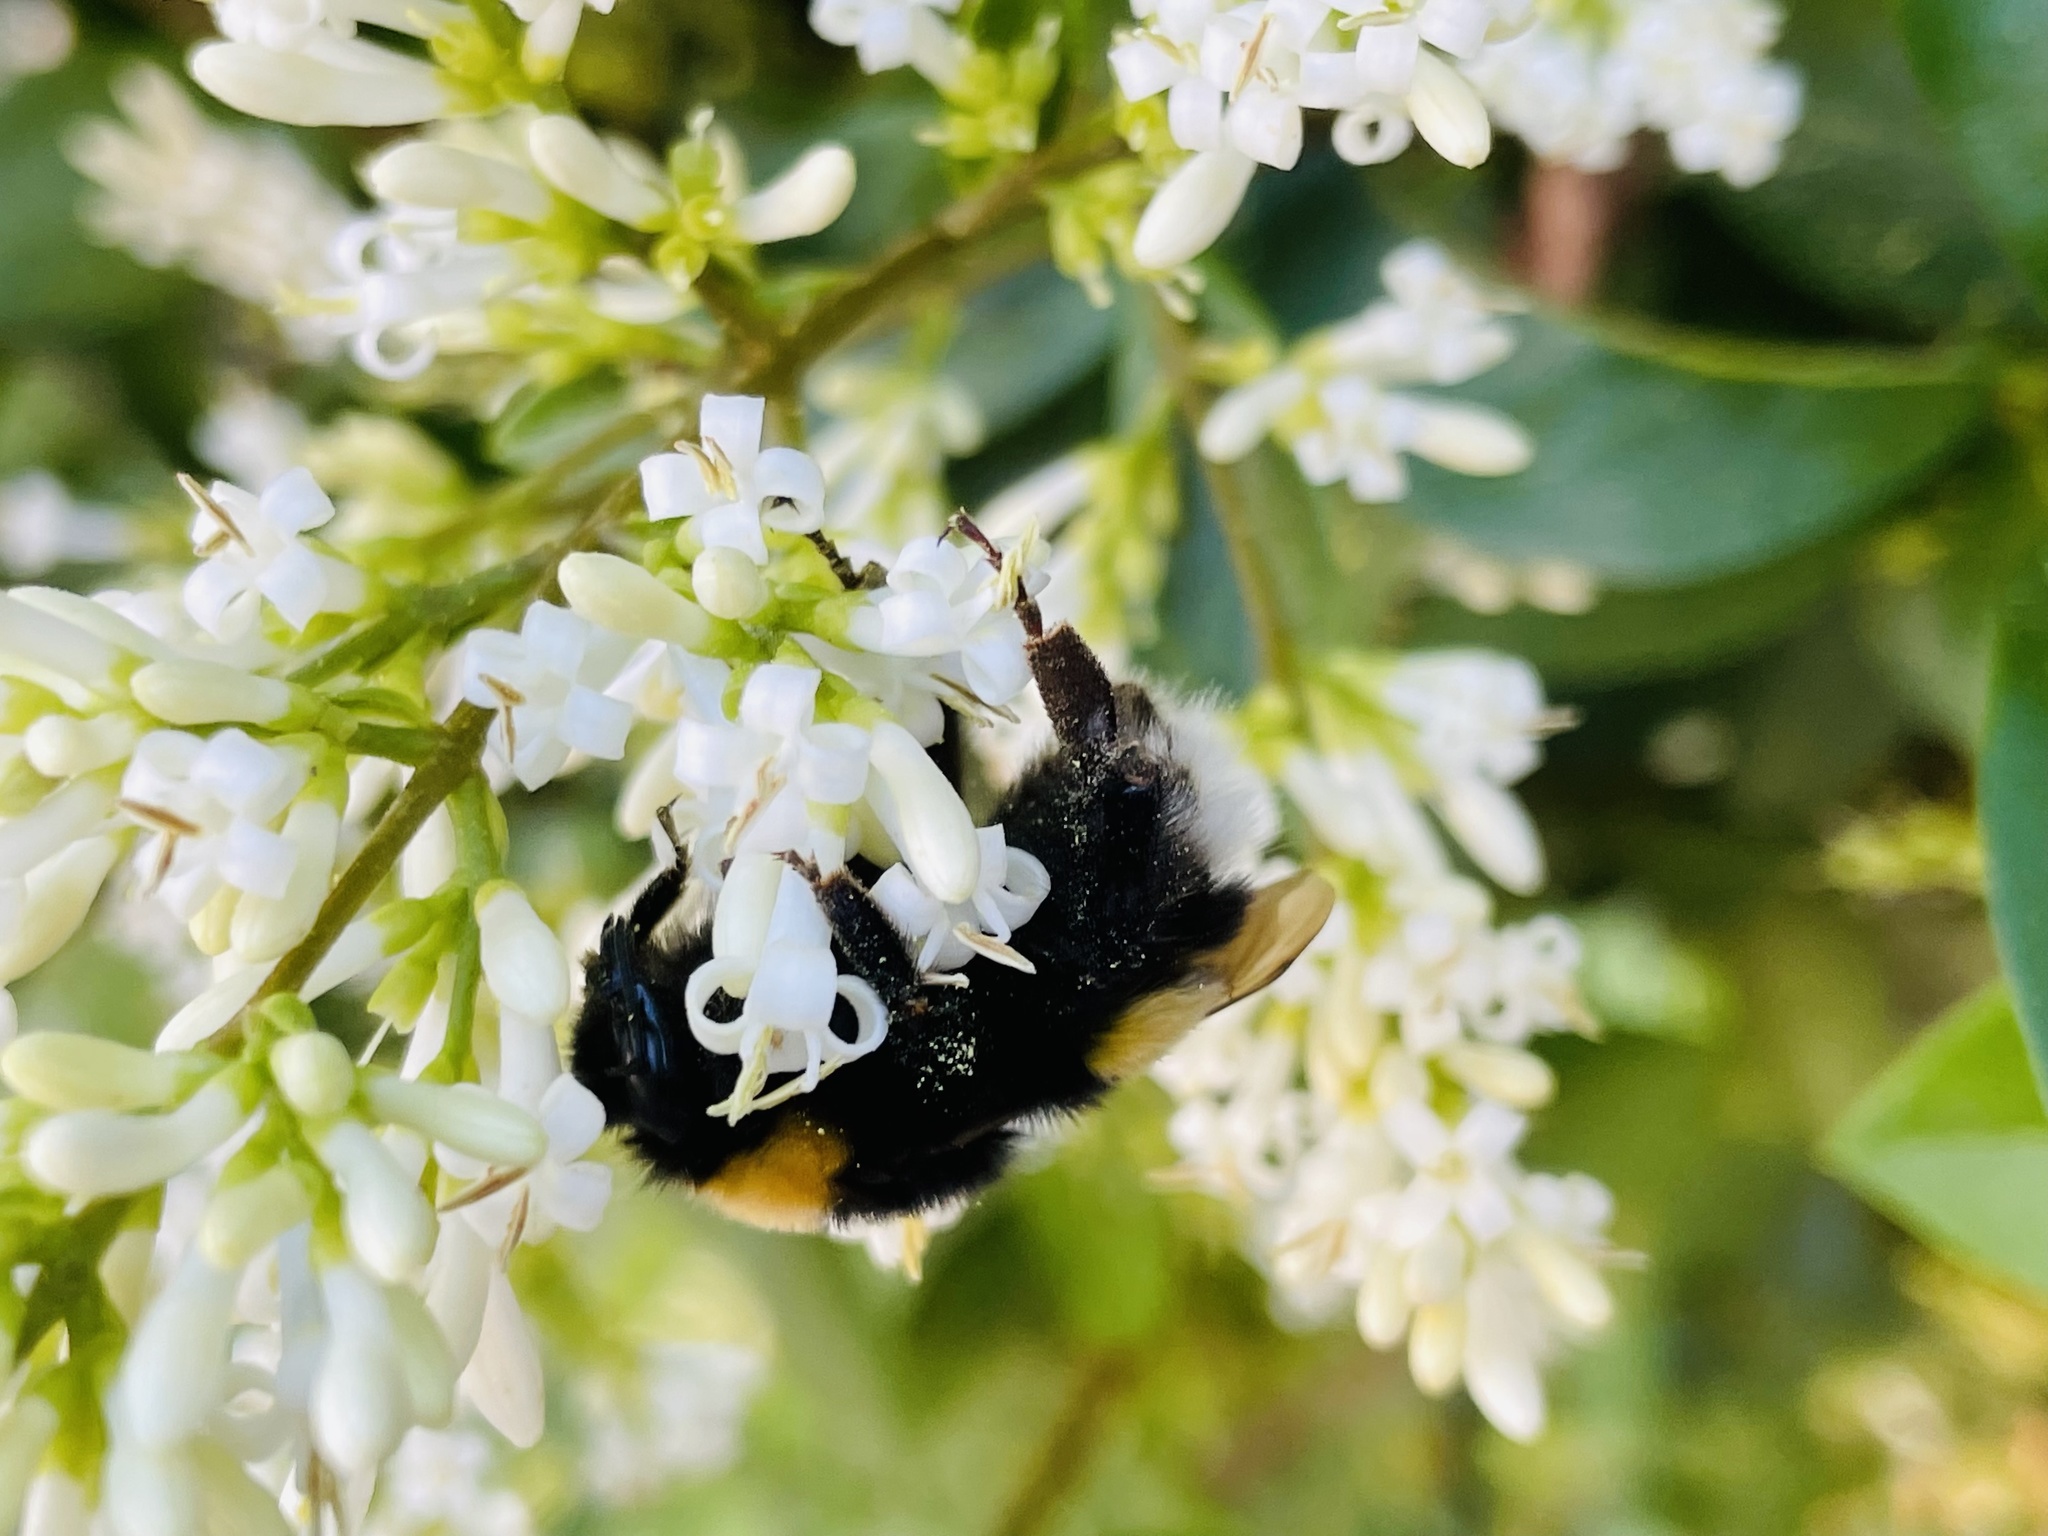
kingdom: Animalia
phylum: Arthropoda
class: Insecta
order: Hymenoptera
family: Apidae
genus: Bombus
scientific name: Bombus terrestris
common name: Buff-tailed bumblebee
